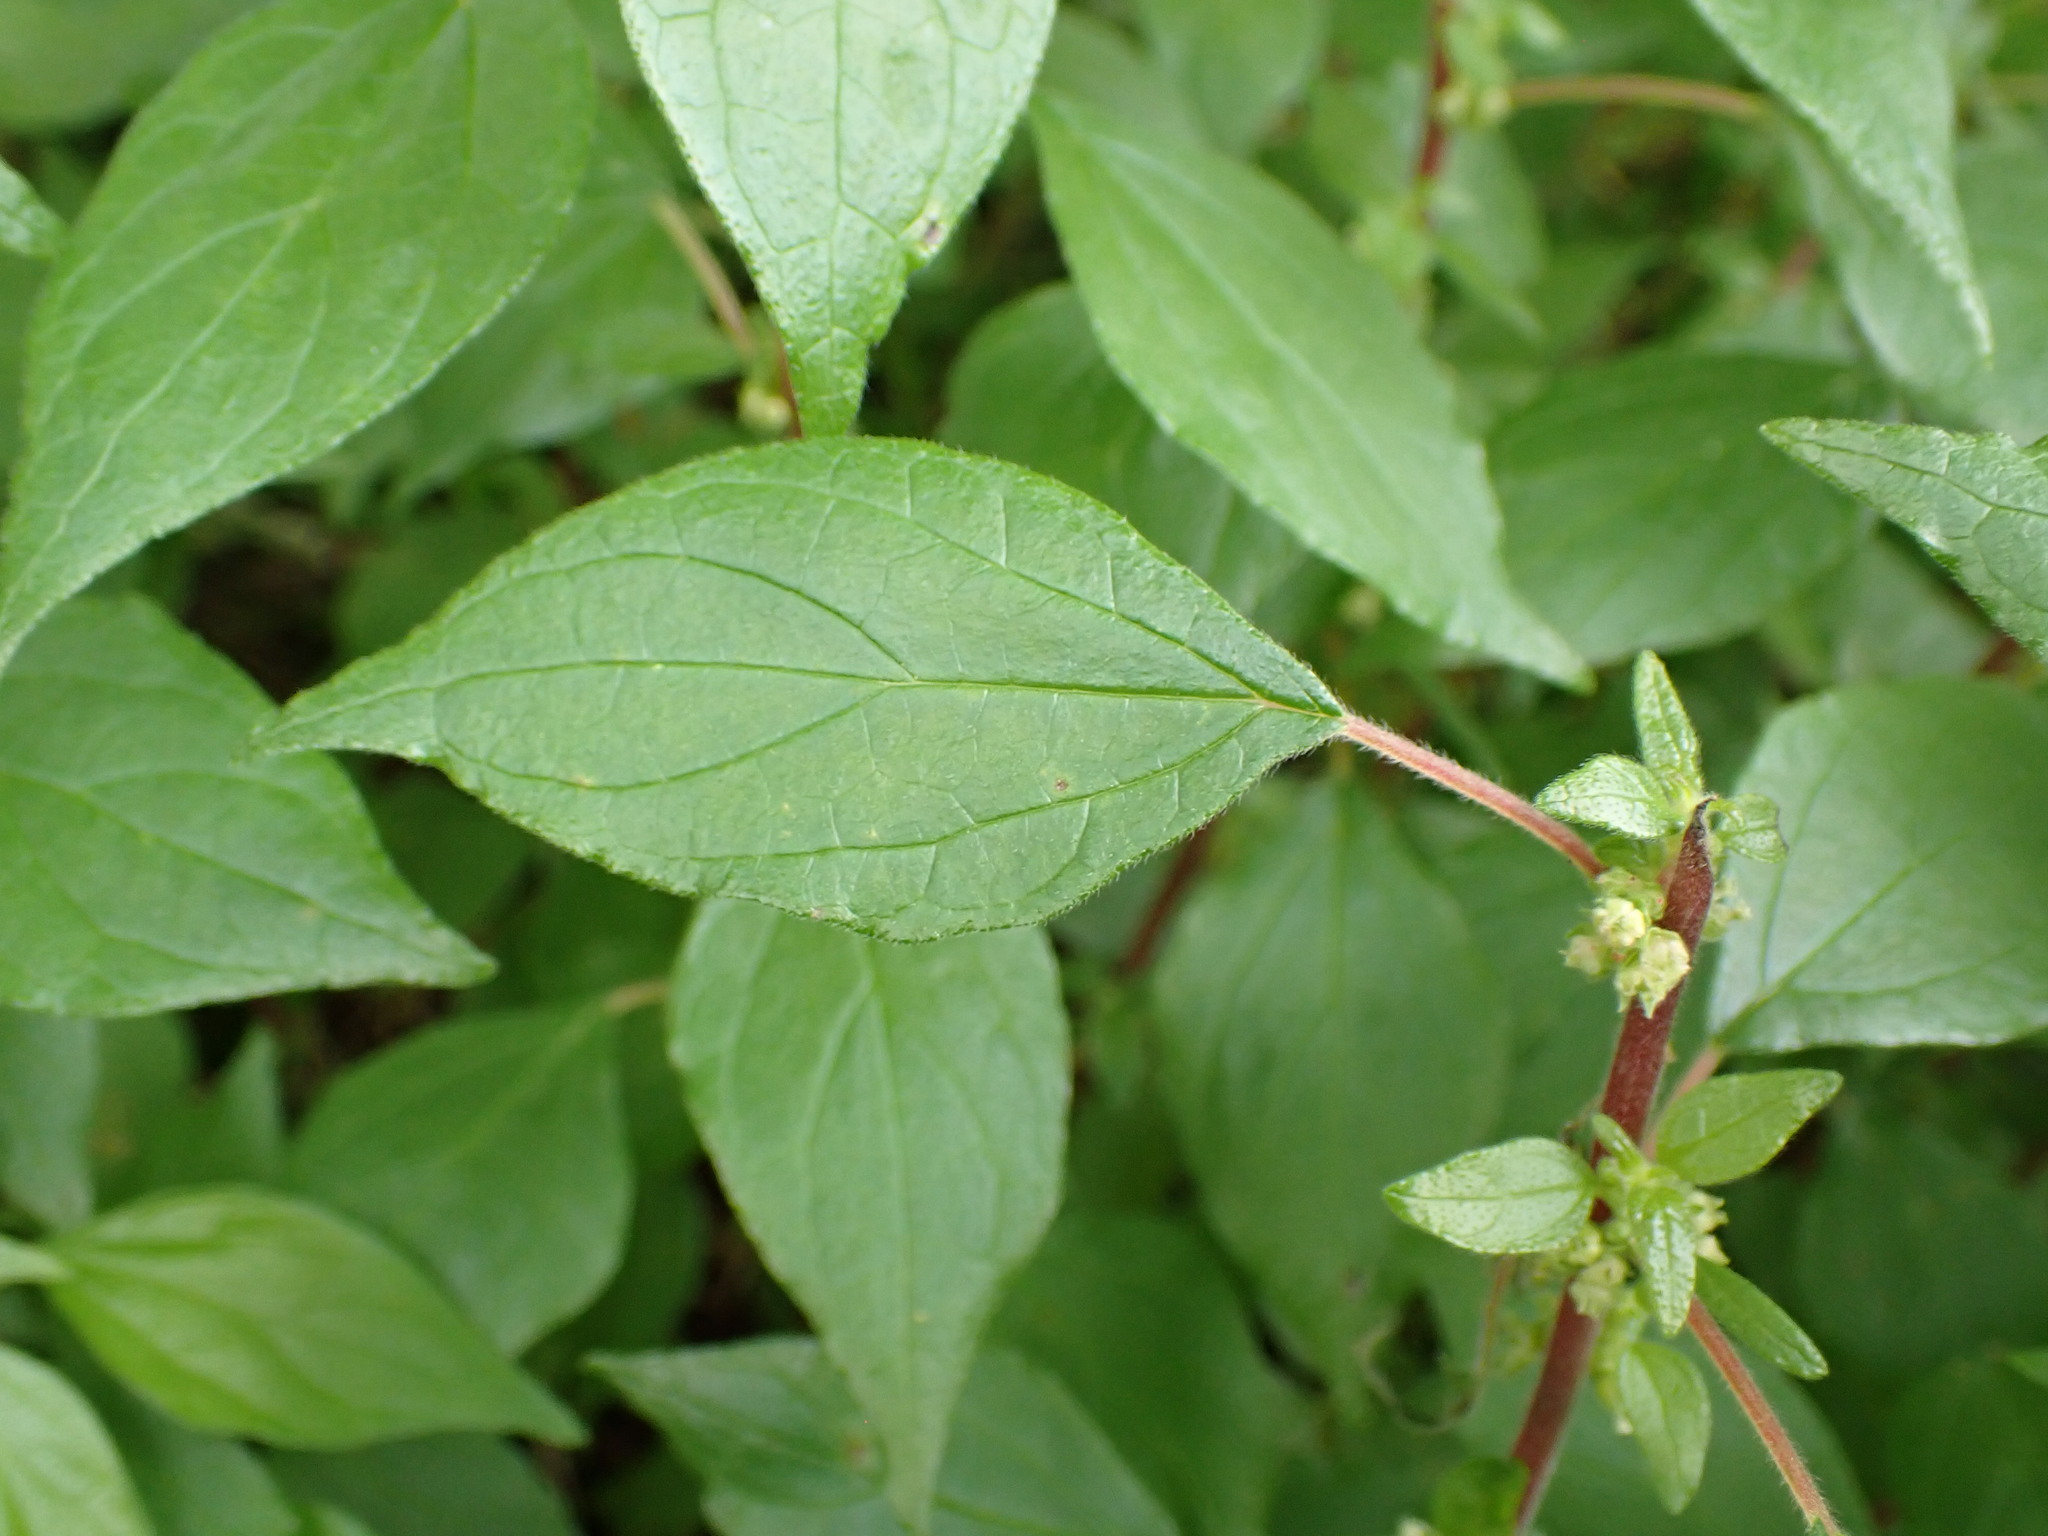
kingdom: Plantae
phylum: Tracheophyta
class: Magnoliopsida
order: Rosales
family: Urticaceae
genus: Parietaria
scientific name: Parietaria judaica
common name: Pellitory-of-the-wall
